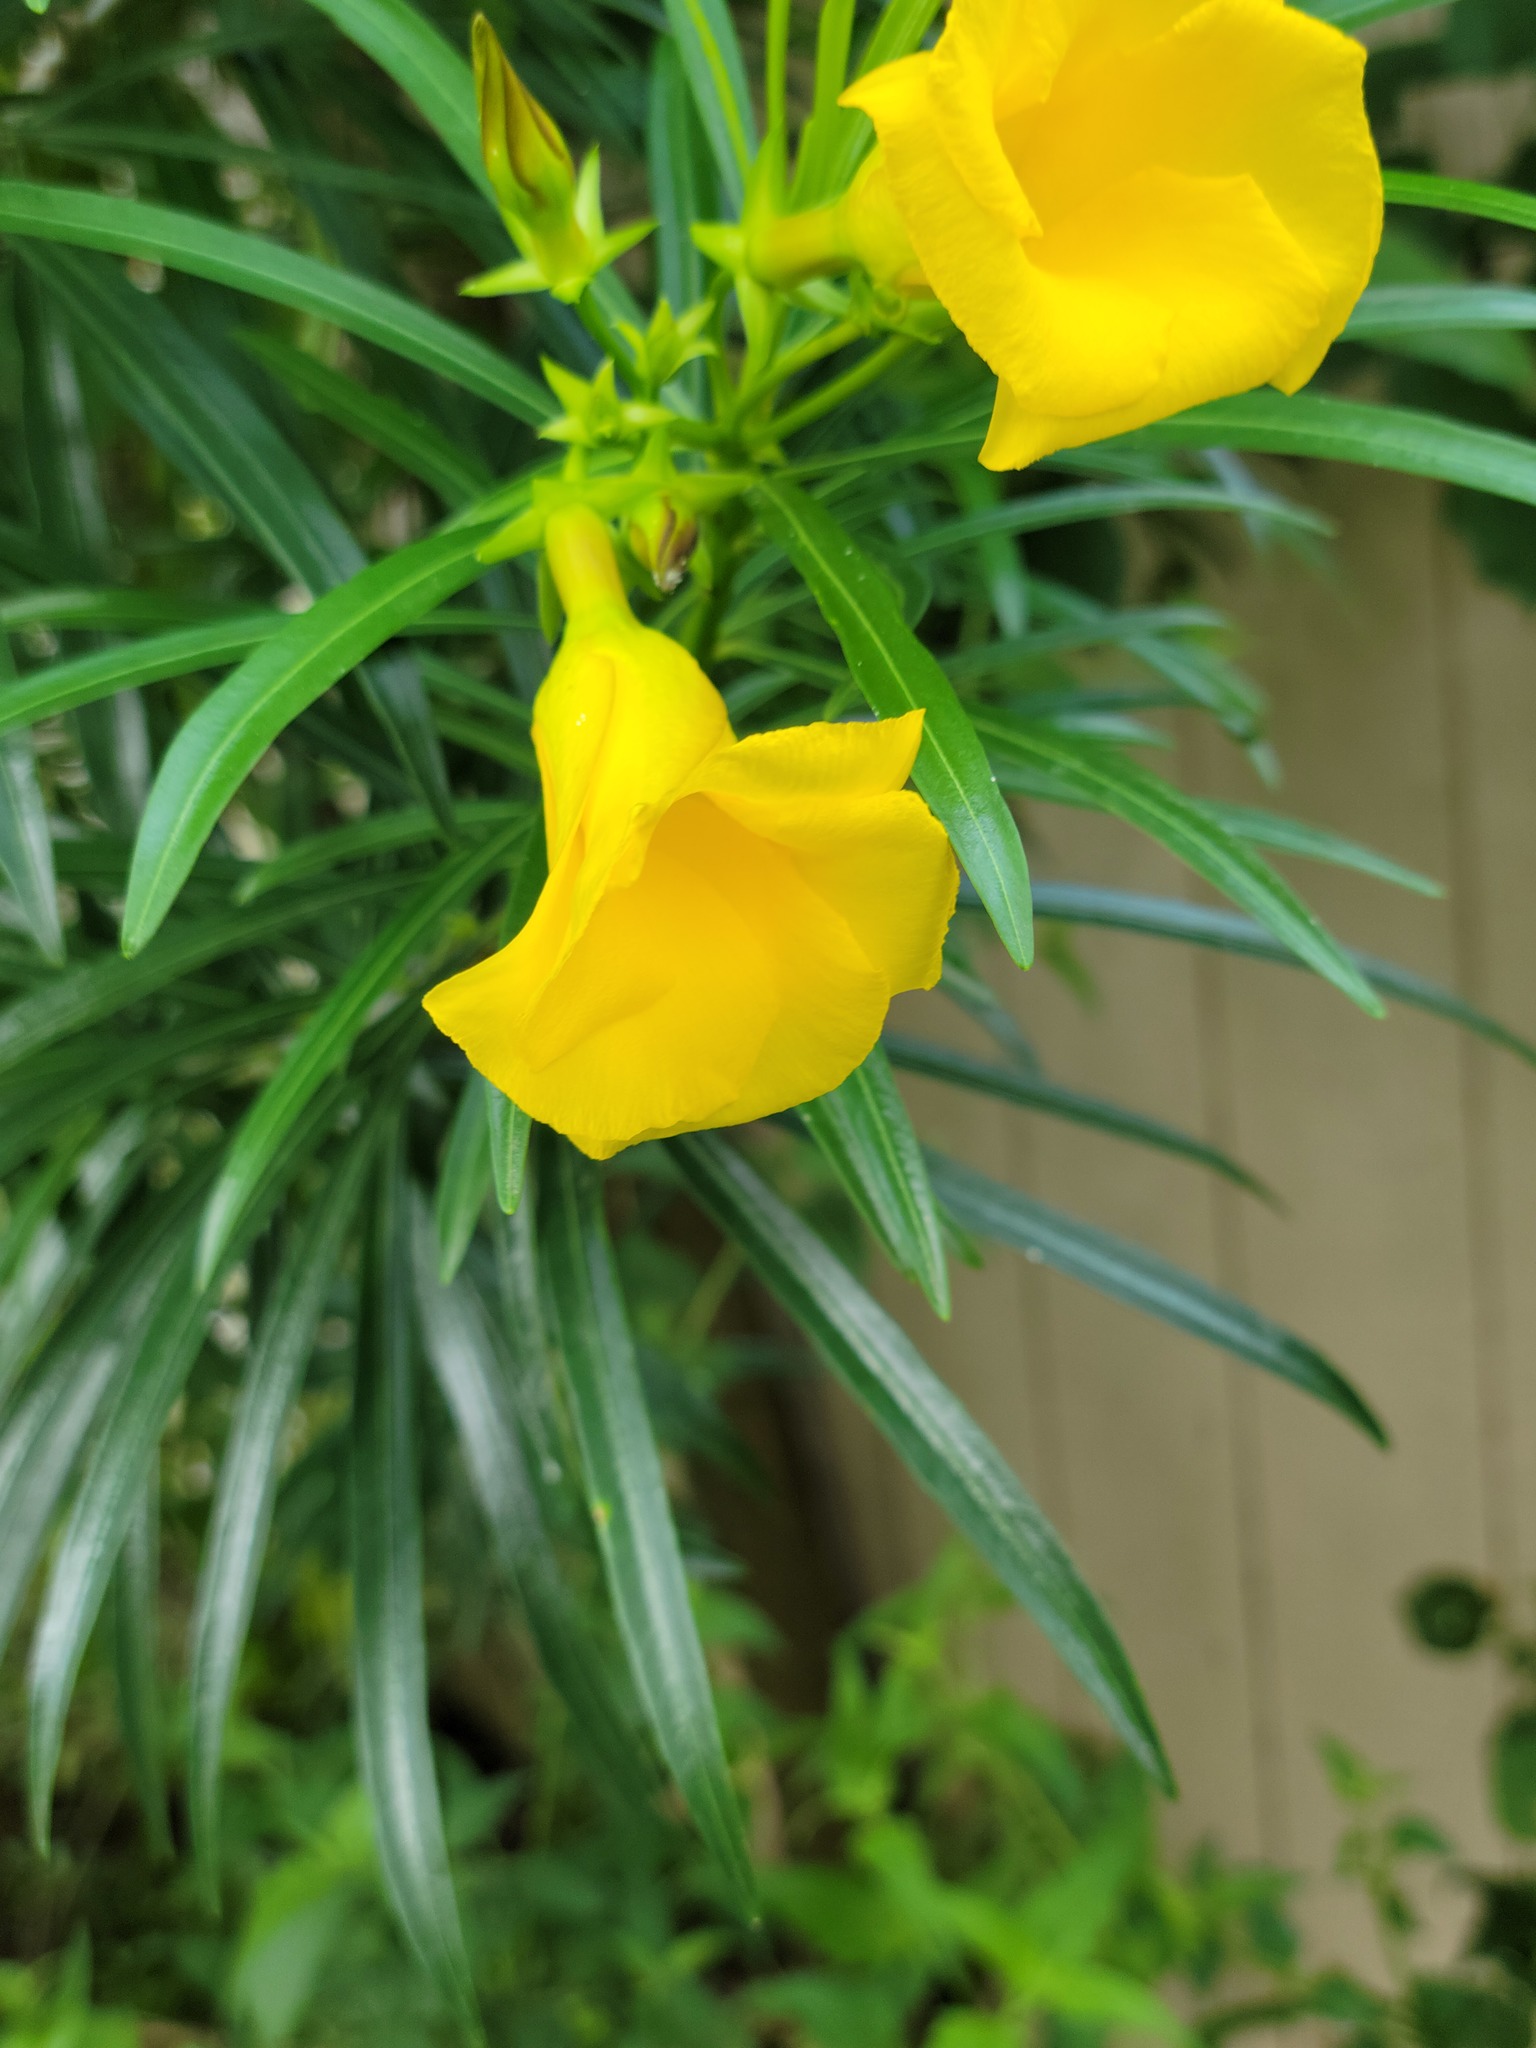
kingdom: Plantae
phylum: Tracheophyta
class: Magnoliopsida
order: Gentianales
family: Apocynaceae
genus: Cascabela
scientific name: Cascabela thevetia
